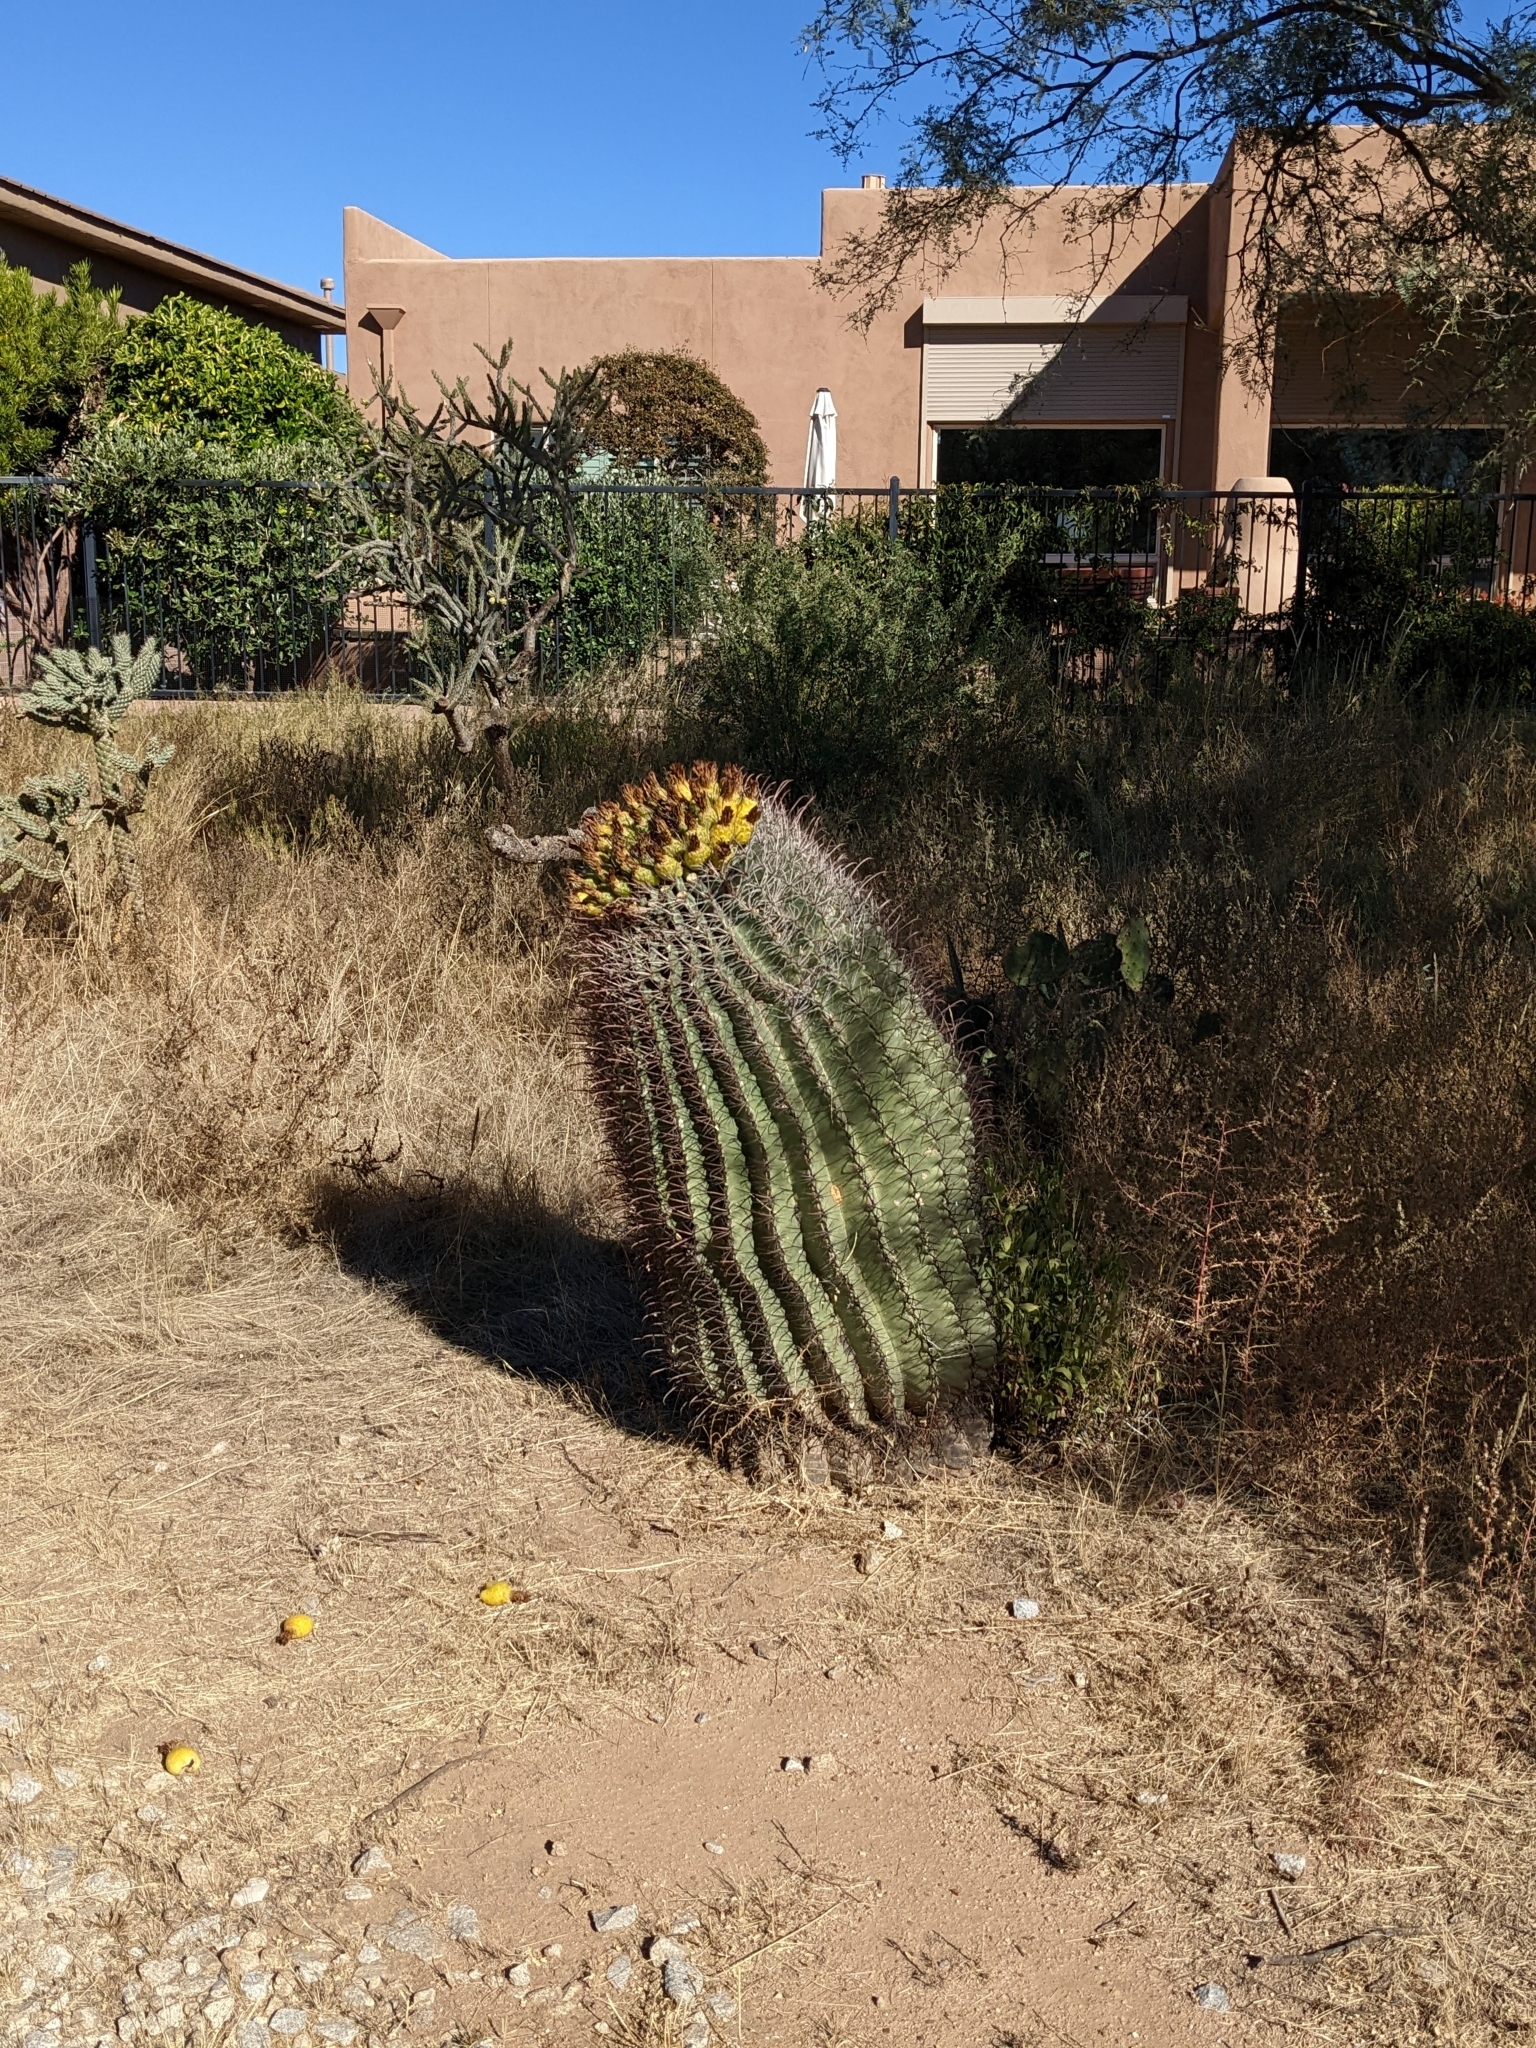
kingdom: Plantae
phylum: Tracheophyta
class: Magnoliopsida
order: Caryophyllales
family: Cactaceae
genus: Ferocactus
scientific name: Ferocactus wislizeni
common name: Candy barrel cactus
